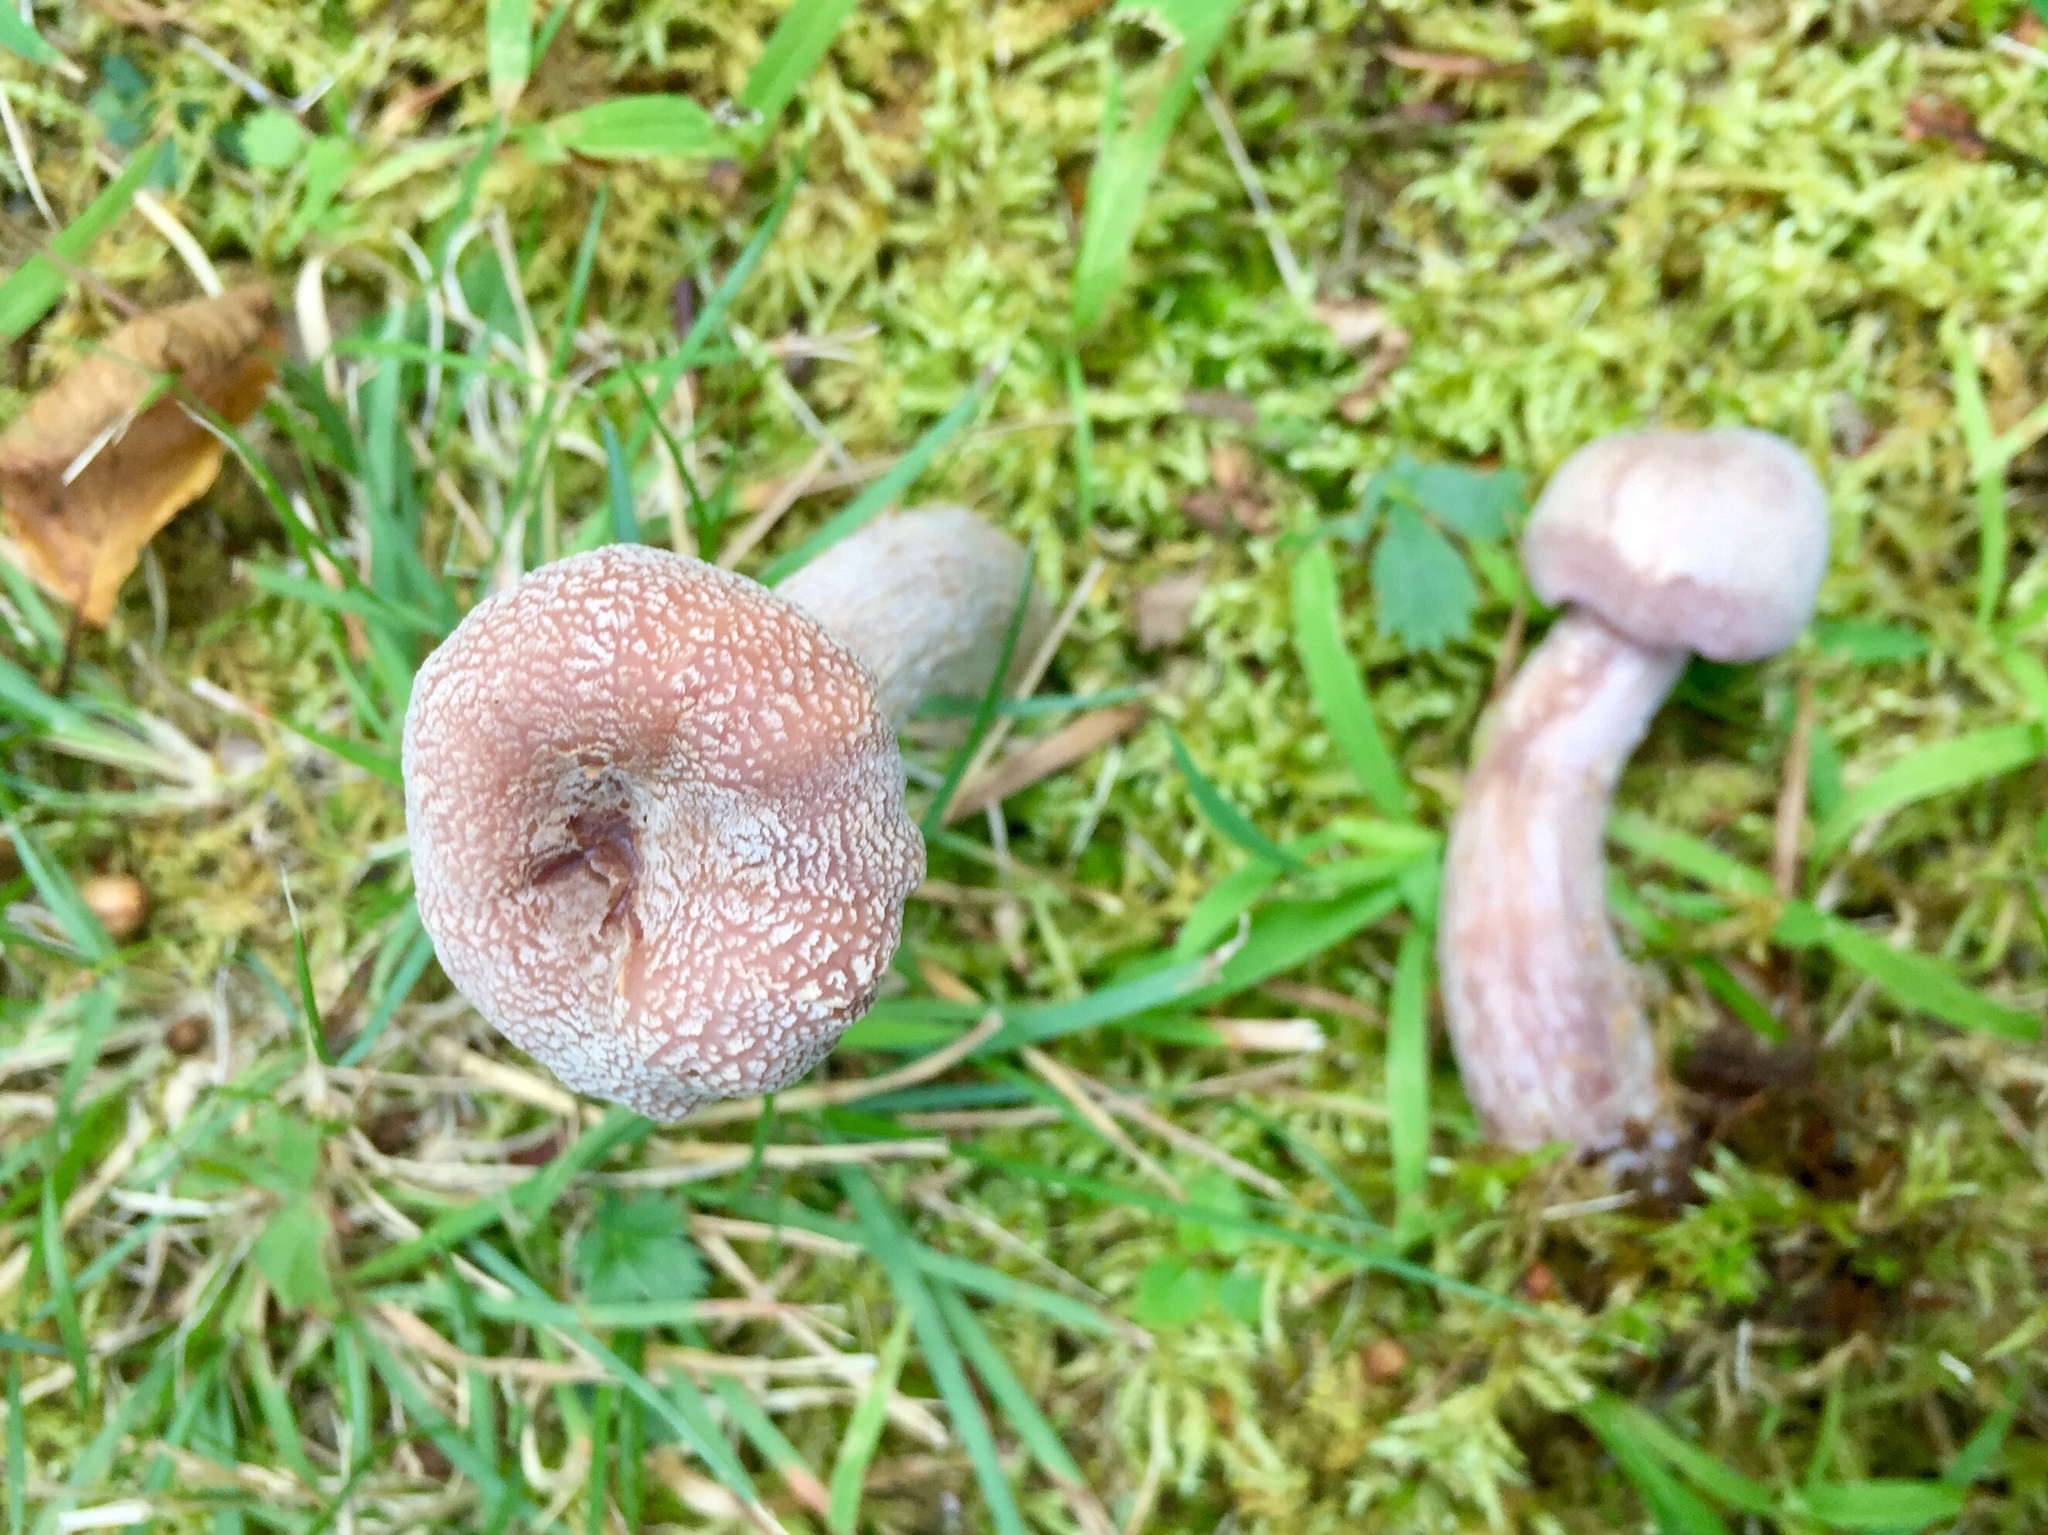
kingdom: Fungi
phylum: Basidiomycota
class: Agaricomycetes
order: Agaricales
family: Hydnangiaceae
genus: Laccaria
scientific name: Laccaria ochropurpurea
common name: Purple laccaria
